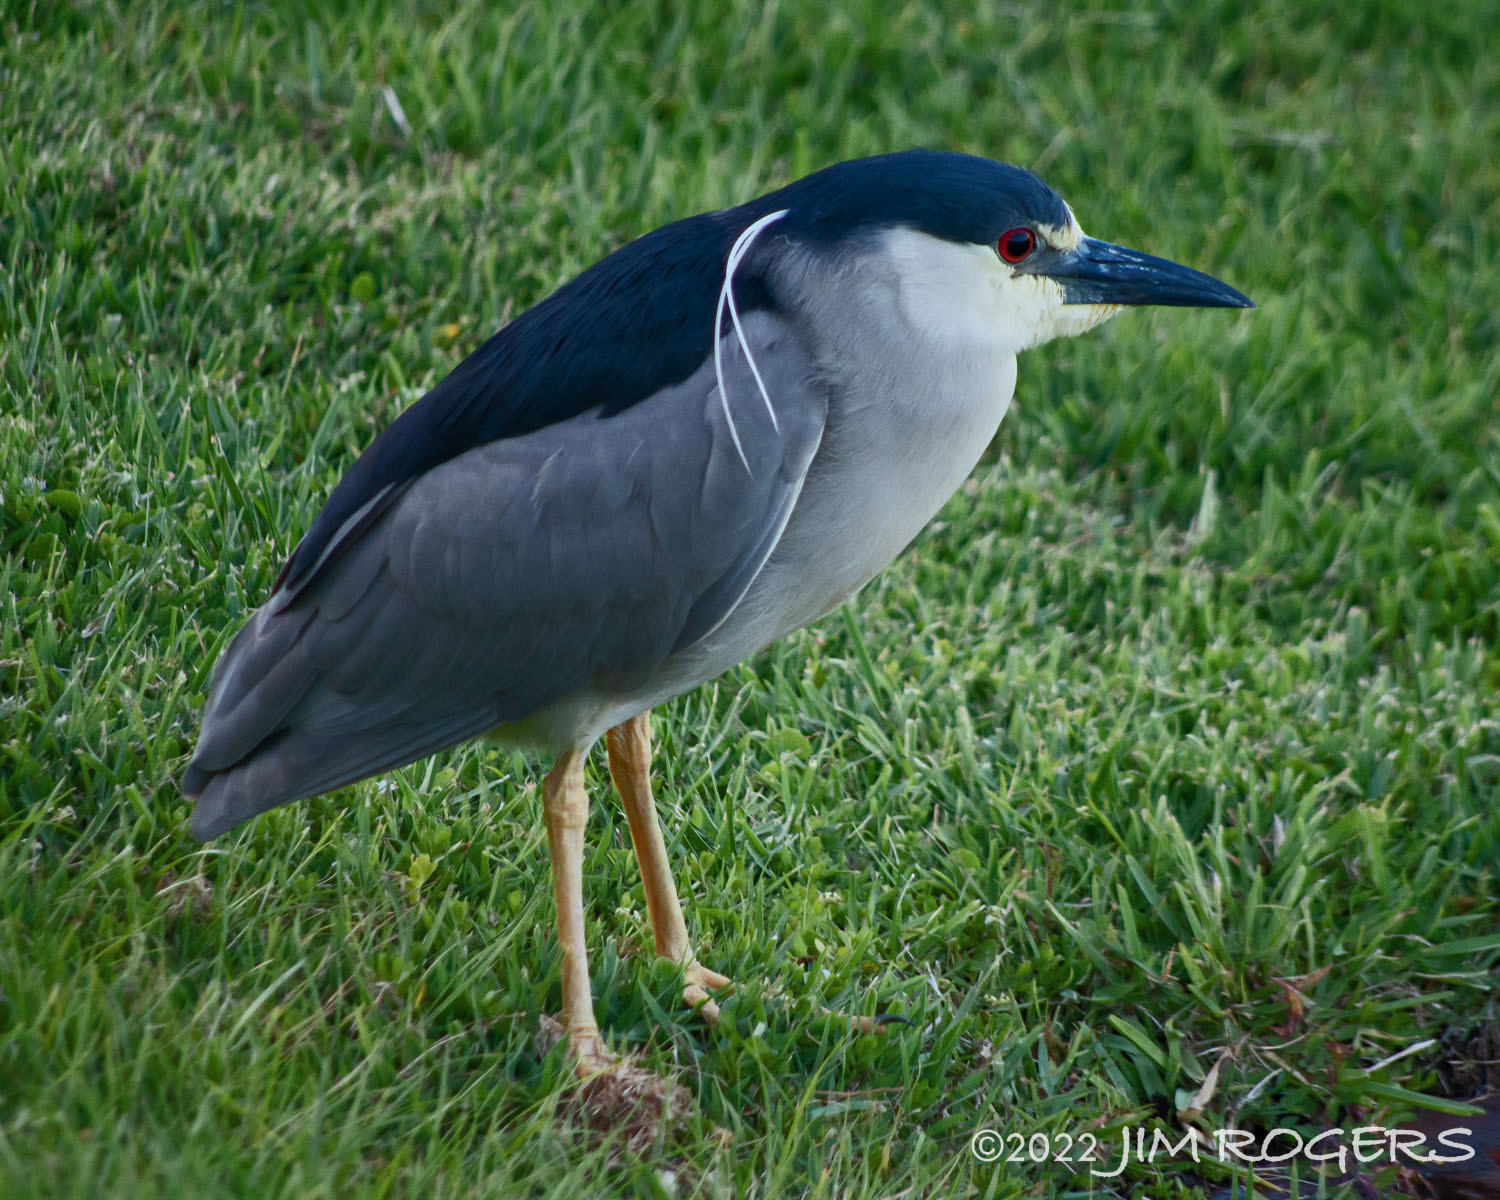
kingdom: Animalia
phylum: Chordata
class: Aves
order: Pelecaniformes
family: Ardeidae
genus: Nycticorax
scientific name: Nycticorax nycticorax
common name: Black-crowned night heron
